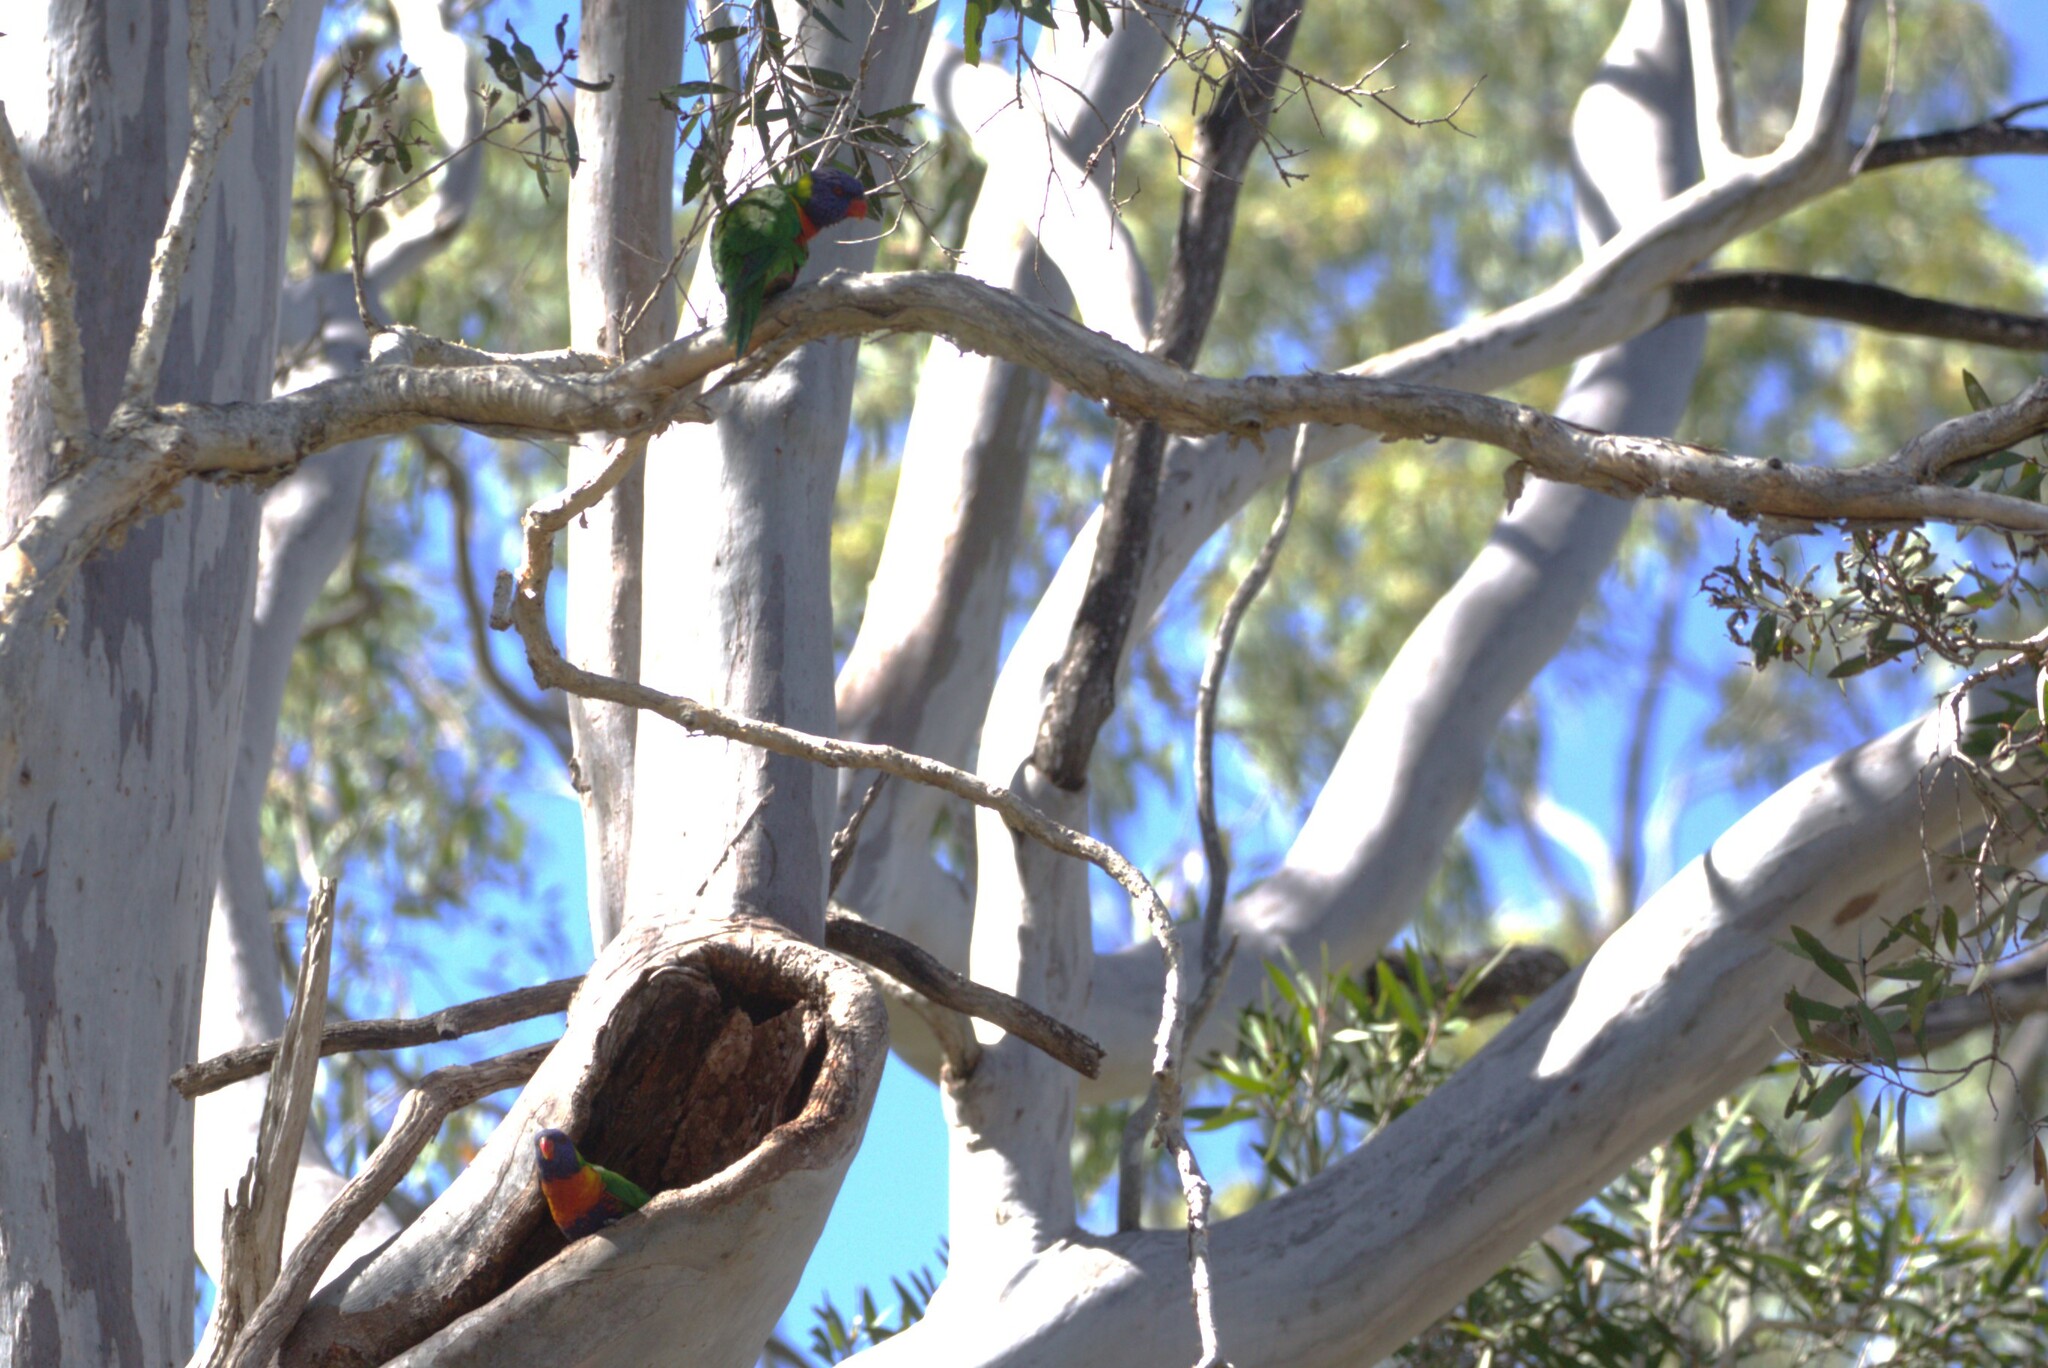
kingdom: Animalia
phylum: Chordata
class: Aves
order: Psittaciformes
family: Psittacidae
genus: Trichoglossus
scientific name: Trichoglossus haematodus
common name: Coconut lorikeet
